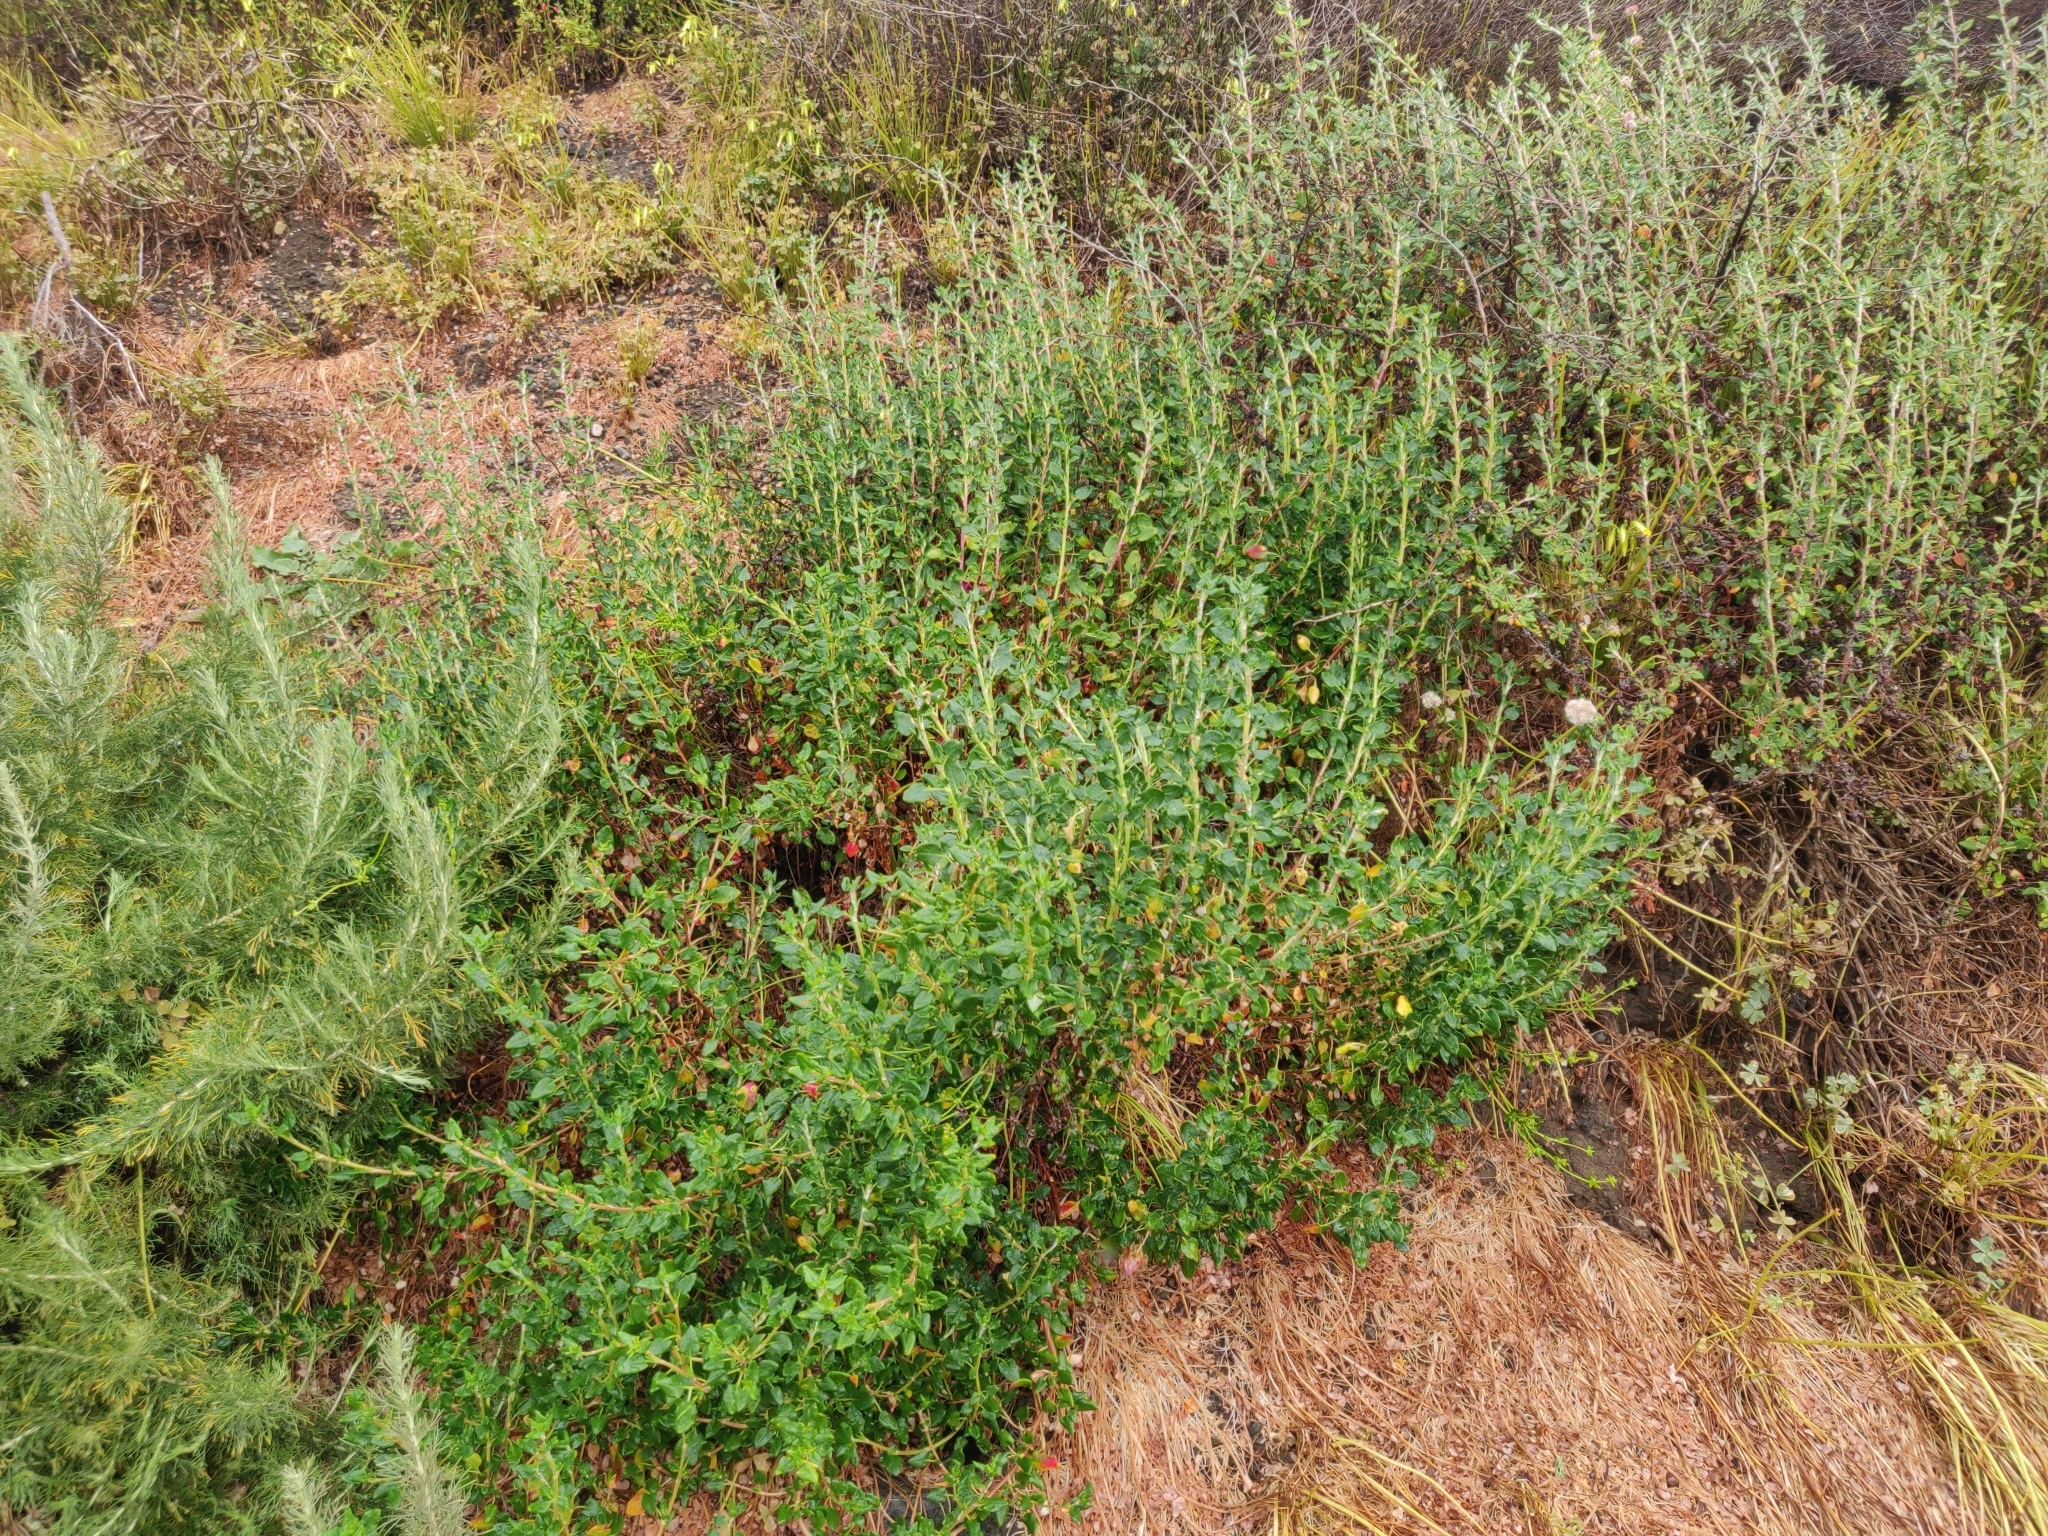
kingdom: Plantae
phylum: Tracheophyta
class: Magnoliopsida
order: Caryophyllales
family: Polygonaceae
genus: Eriogonum
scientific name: Eriogonum parvifolium
